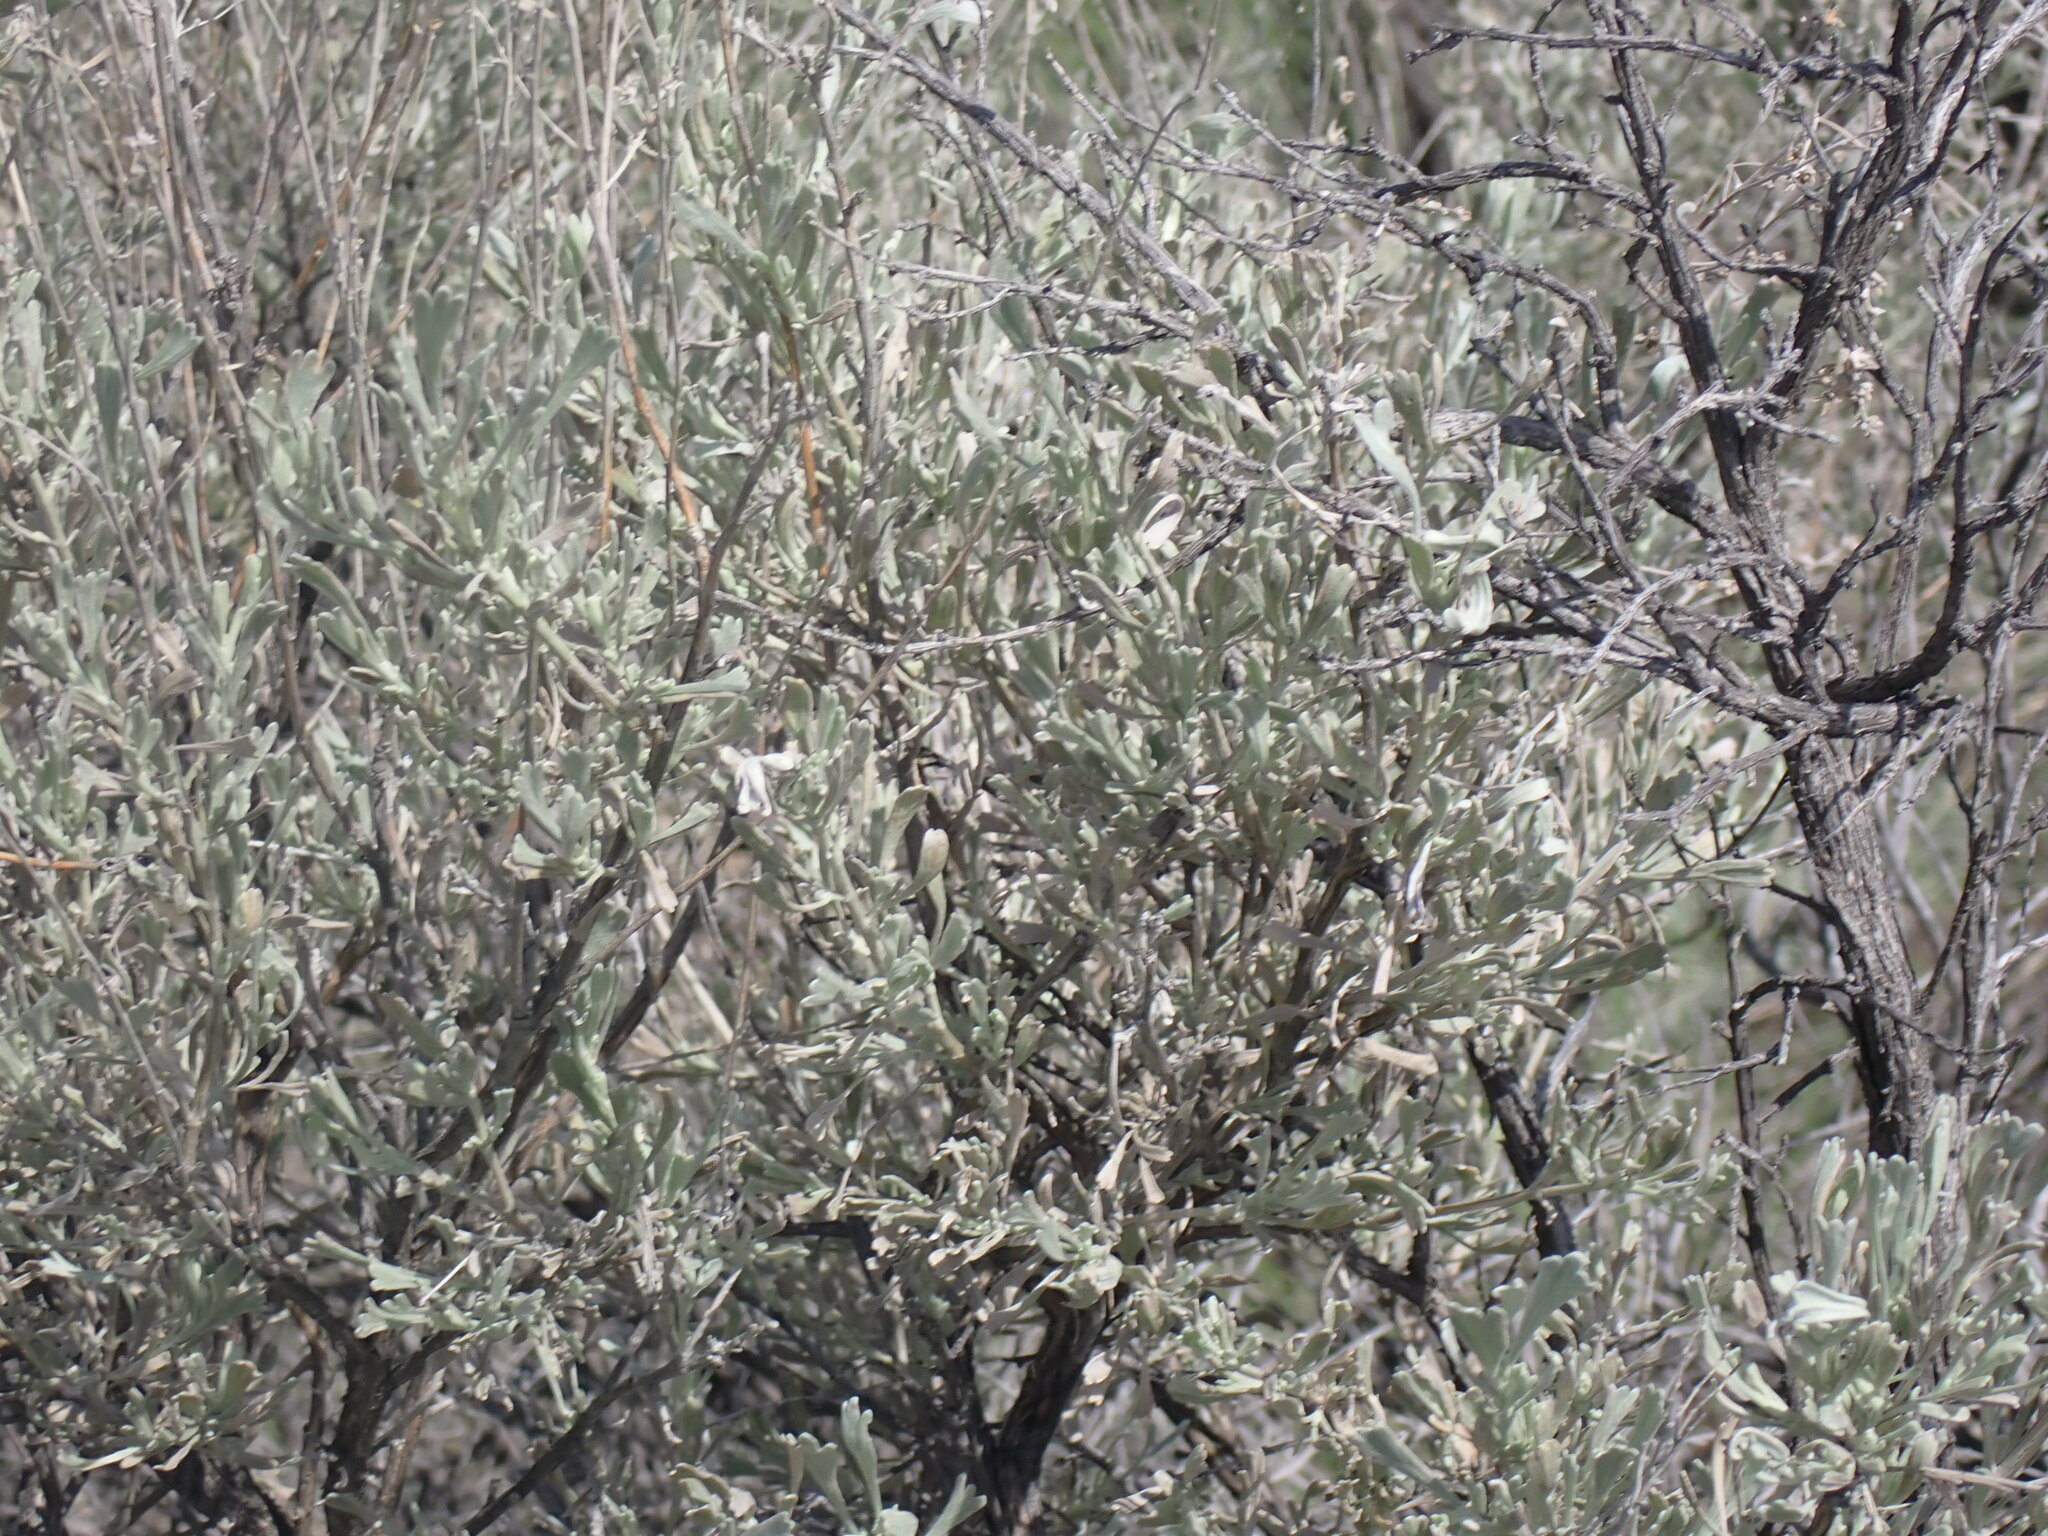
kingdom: Plantae
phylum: Tracheophyta
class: Magnoliopsida
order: Asterales
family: Asteraceae
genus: Artemisia
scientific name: Artemisia tridentata
